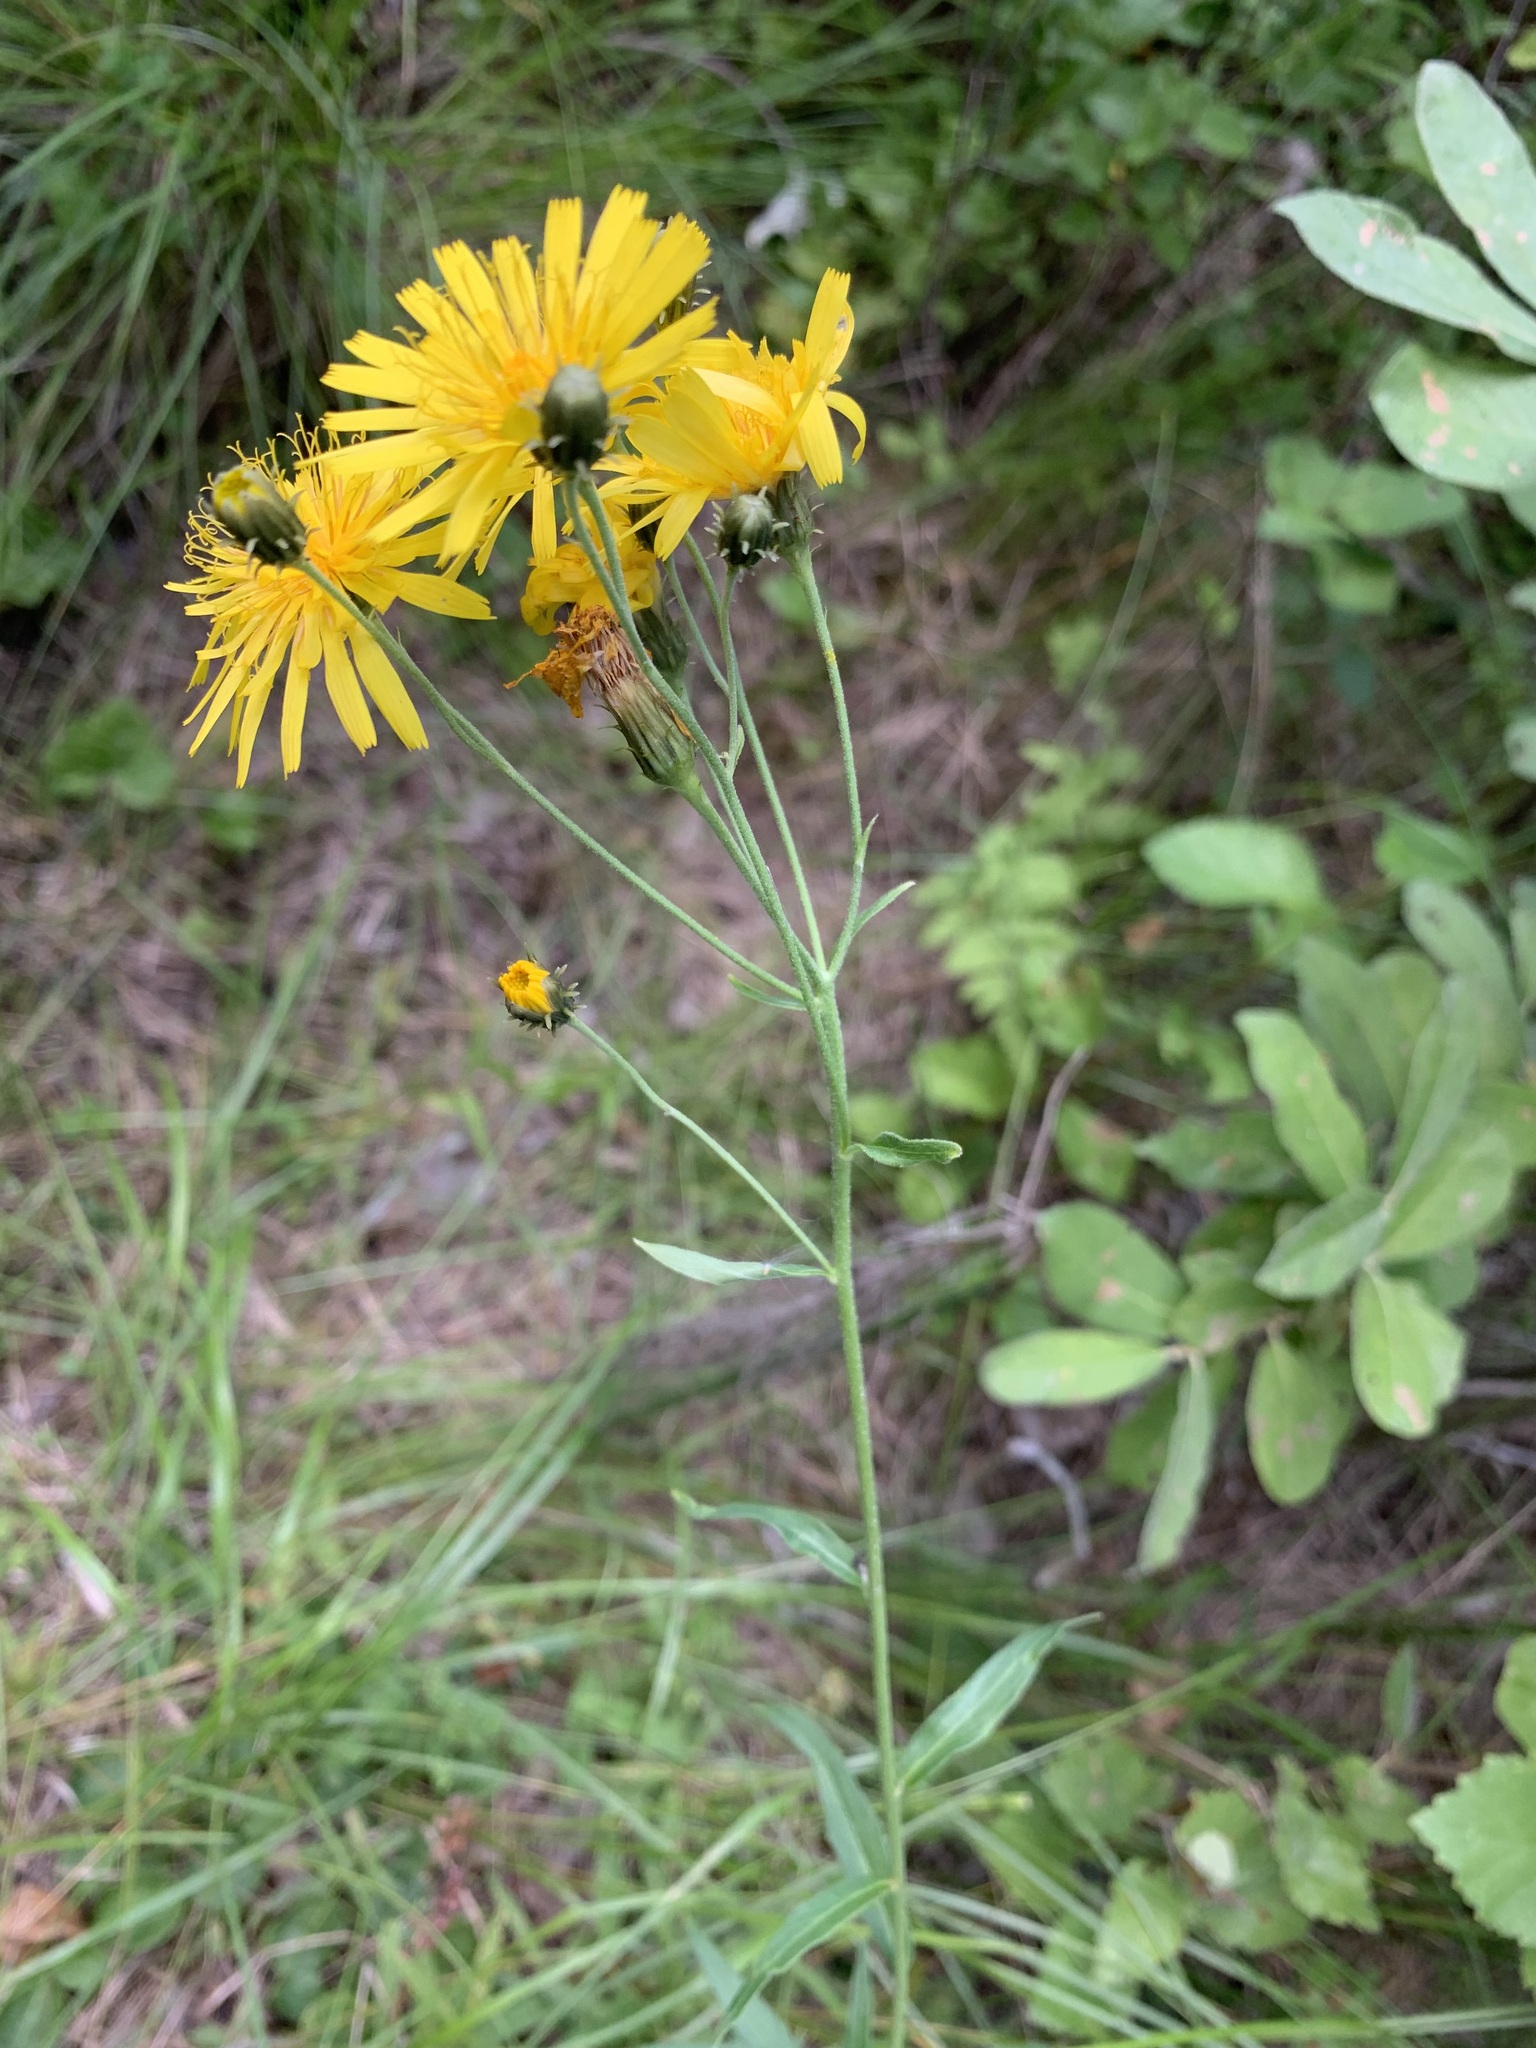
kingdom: Plantae
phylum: Tracheophyta
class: Magnoliopsida
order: Asterales
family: Asteraceae
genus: Hieracium
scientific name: Hieracium umbellatum
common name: Northern hawkweed
